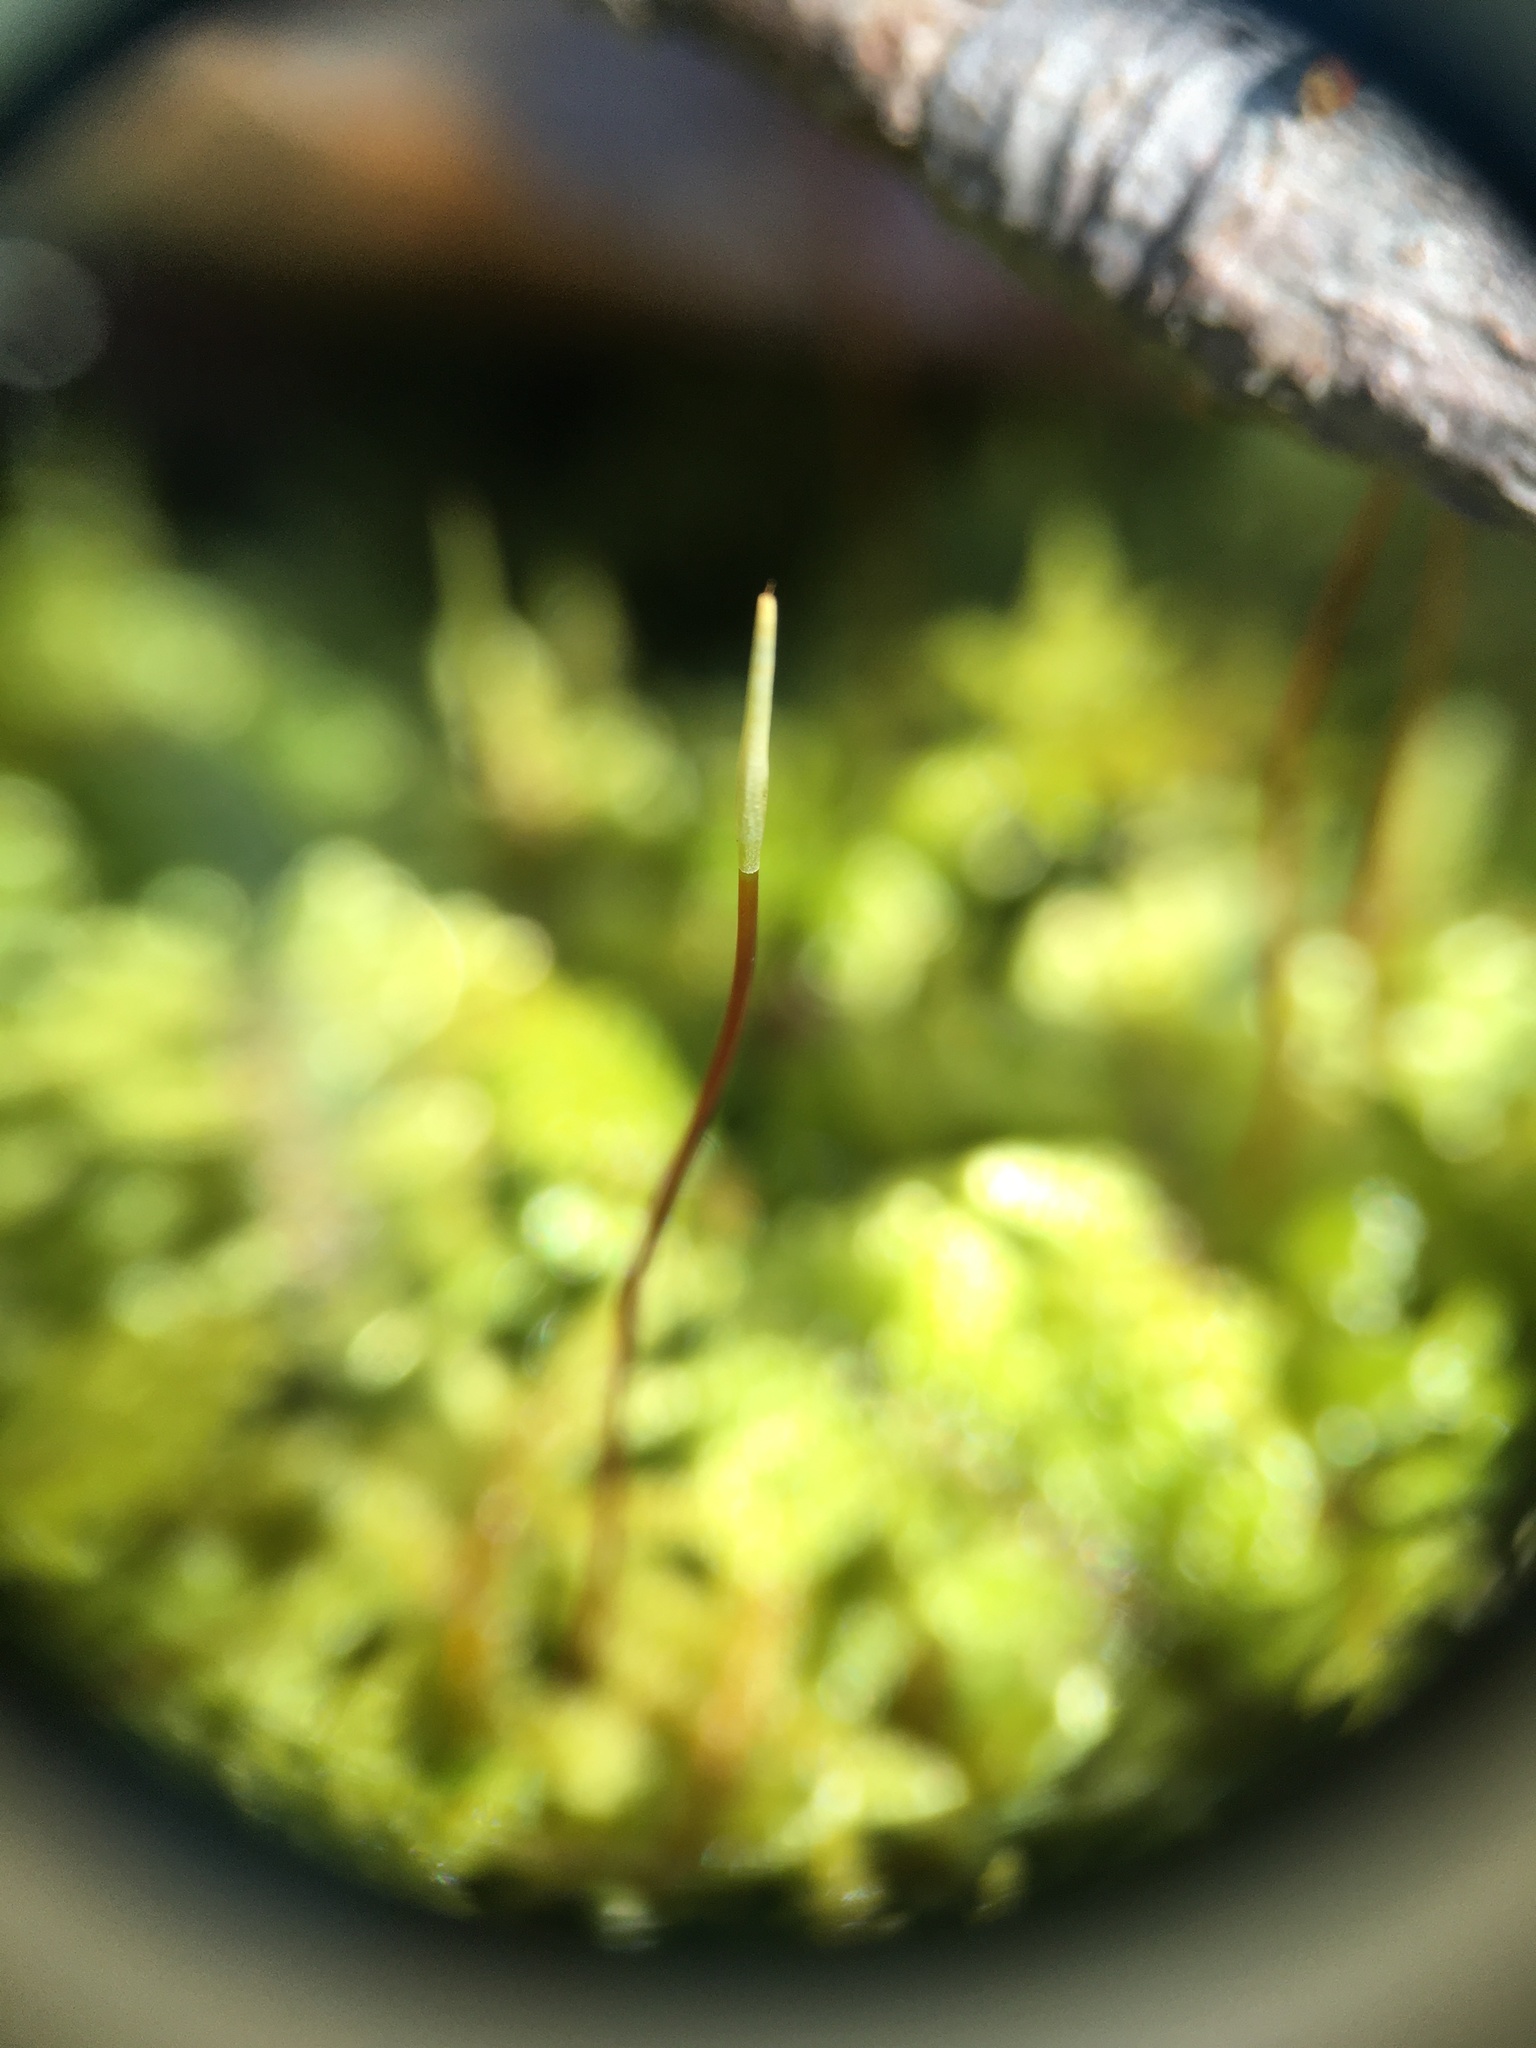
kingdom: Plantae
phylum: Bryophyta
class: Bryopsida
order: Hypnales
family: Callicladiaceae
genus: Callicladium
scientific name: Callicladium imponens
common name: Brocade moss
